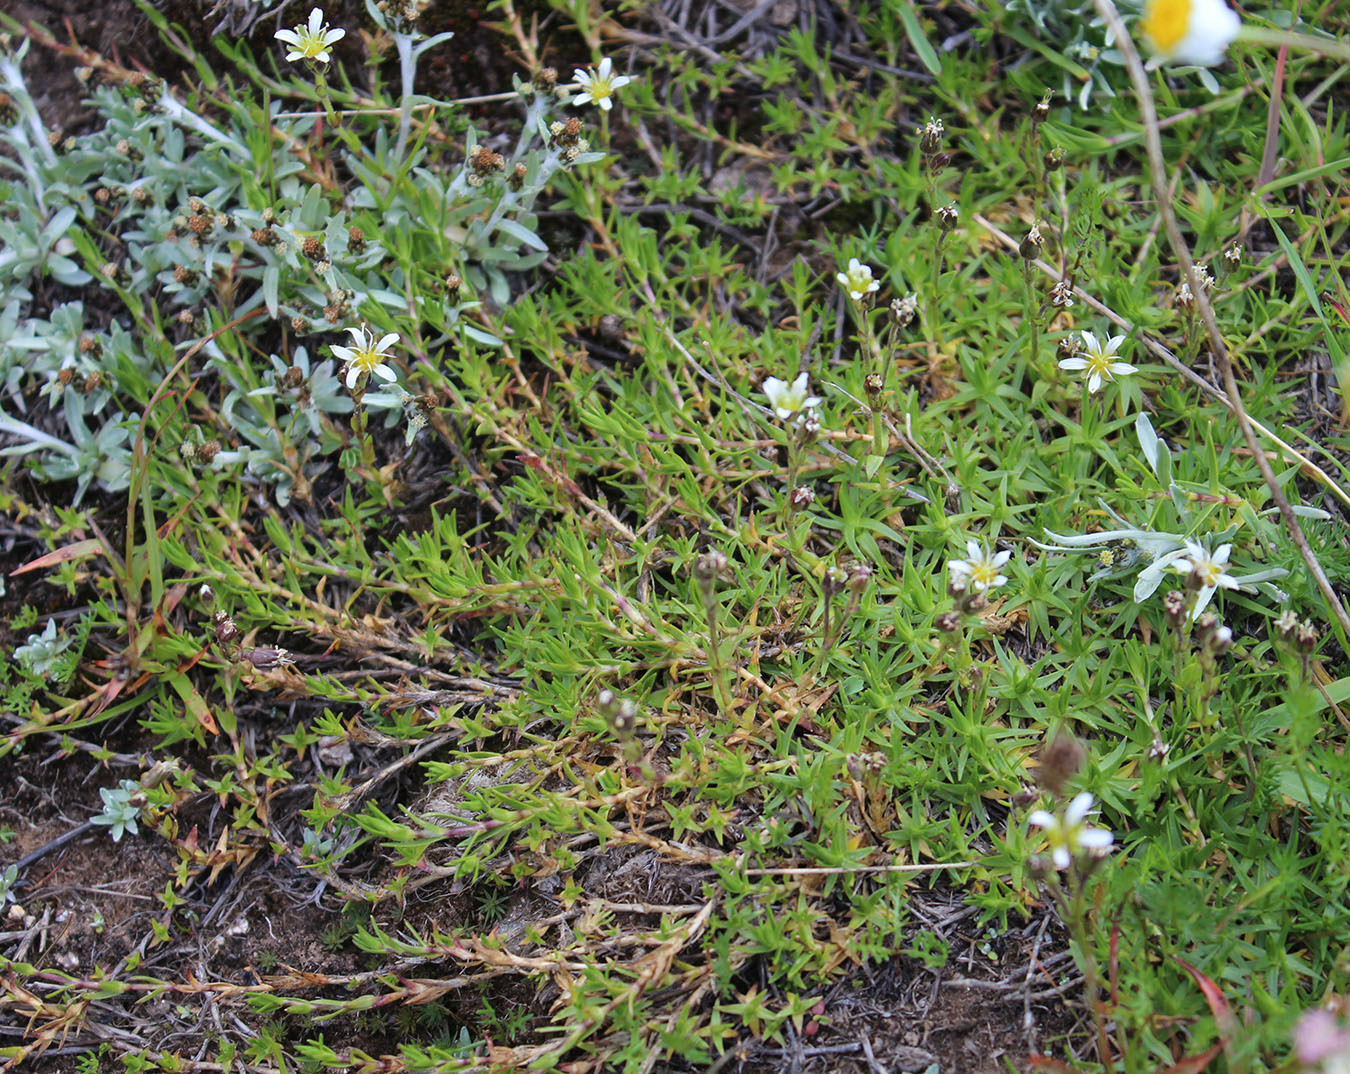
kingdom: Plantae
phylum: Tracheophyta
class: Magnoliopsida
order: Caryophyllales
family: Caryophyllaceae
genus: Pseudocherleria
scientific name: Pseudocherleria aizoides
